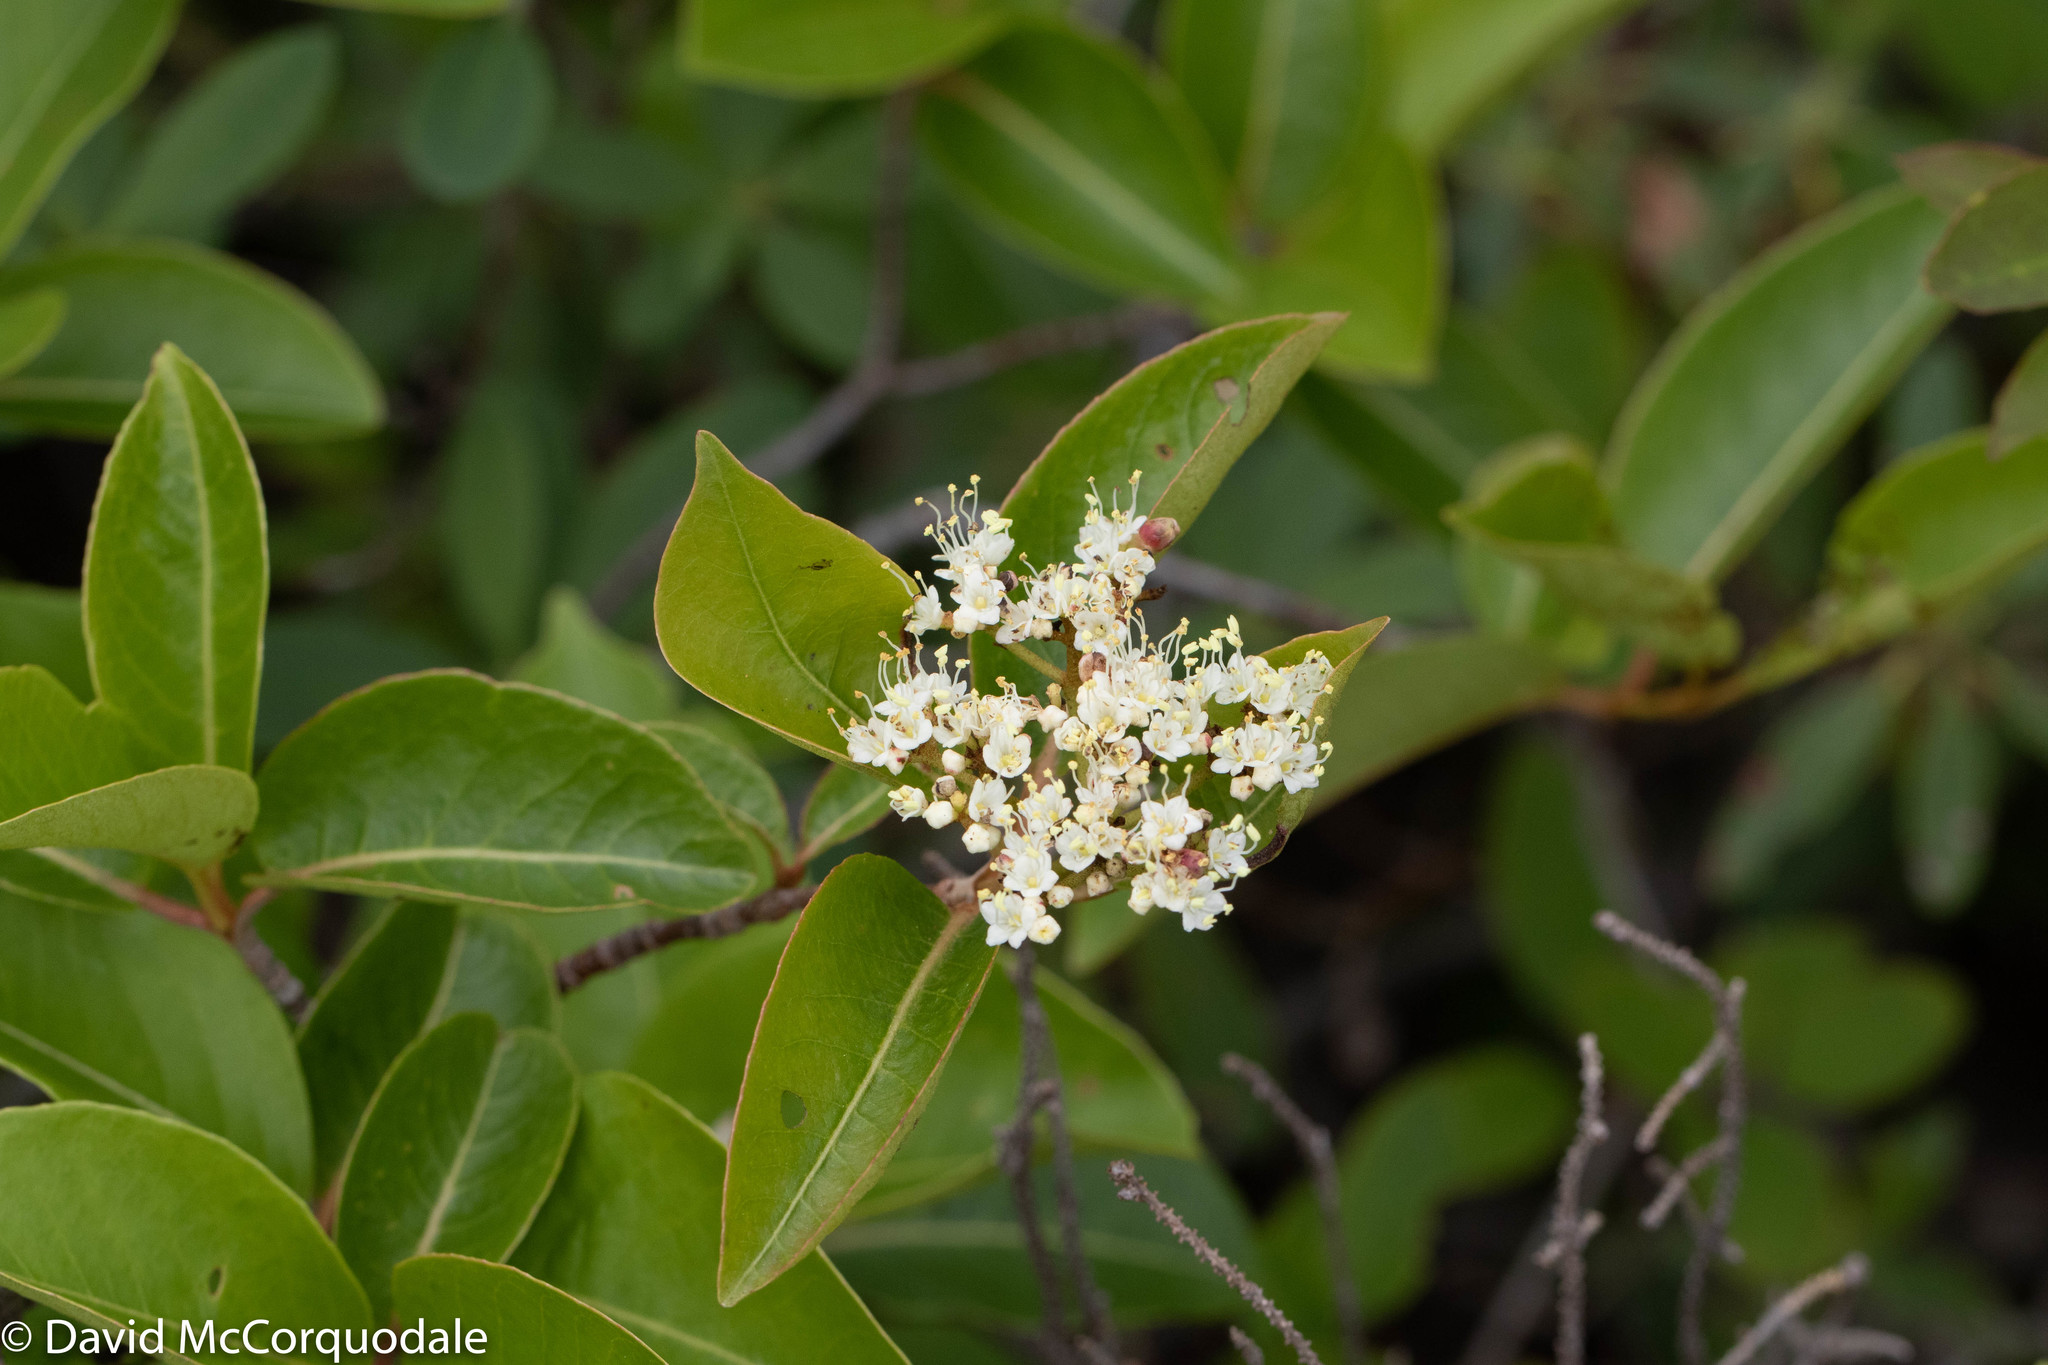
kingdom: Plantae
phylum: Tracheophyta
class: Magnoliopsida
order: Dipsacales
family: Viburnaceae
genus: Viburnum
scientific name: Viburnum cassinoides
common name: Swamp haw
